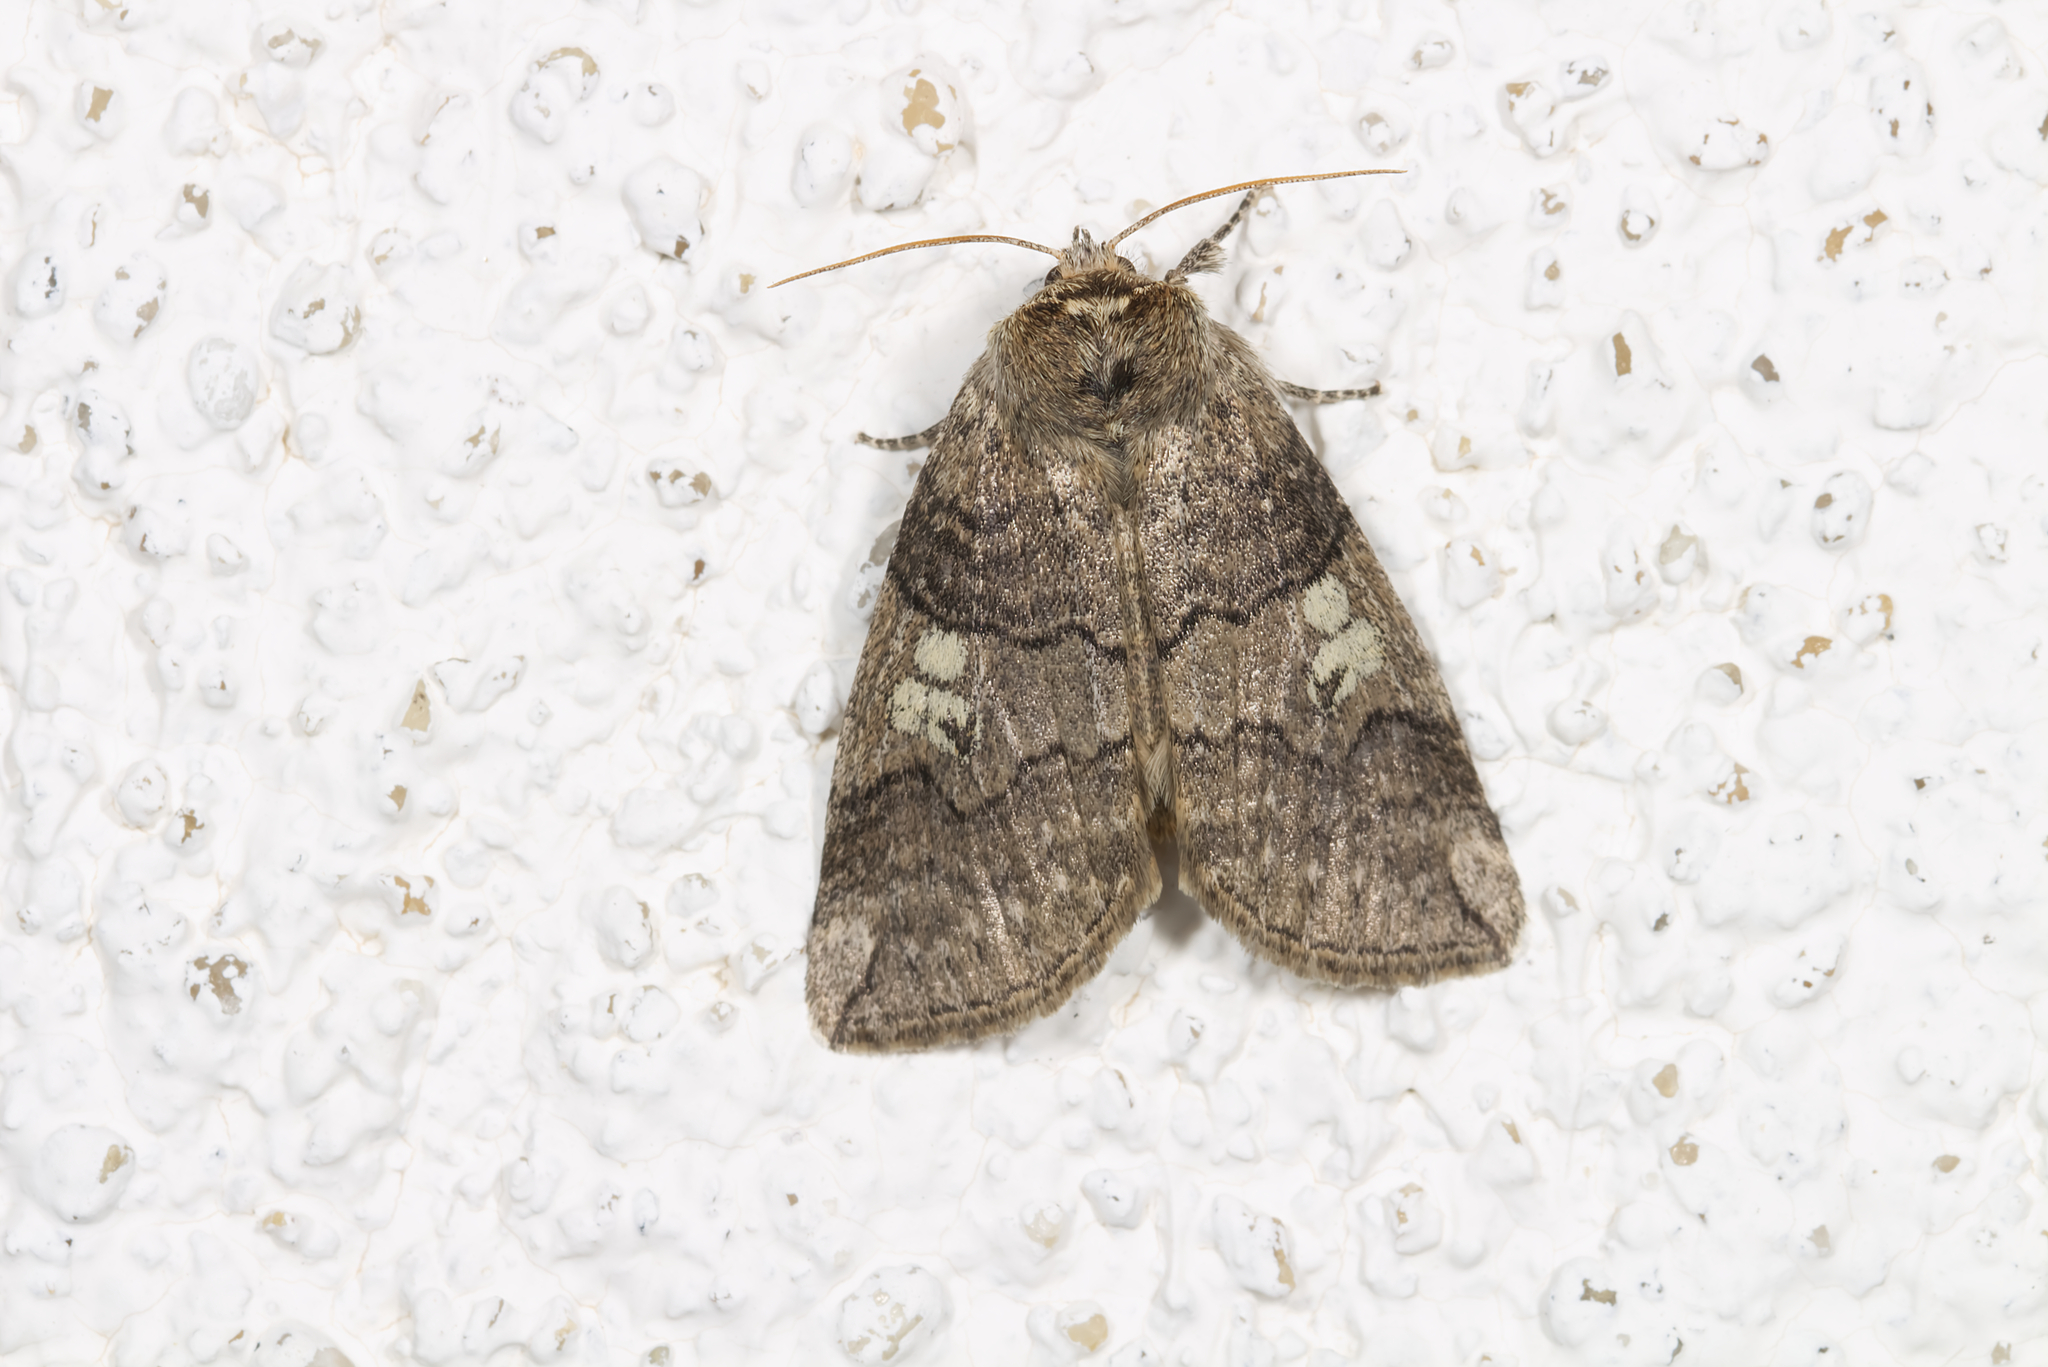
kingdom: Animalia
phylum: Arthropoda
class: Insecta
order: Lepidoptera
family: Drepanidae
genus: Tethea
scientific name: Tethea or
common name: Poplar lutestring
